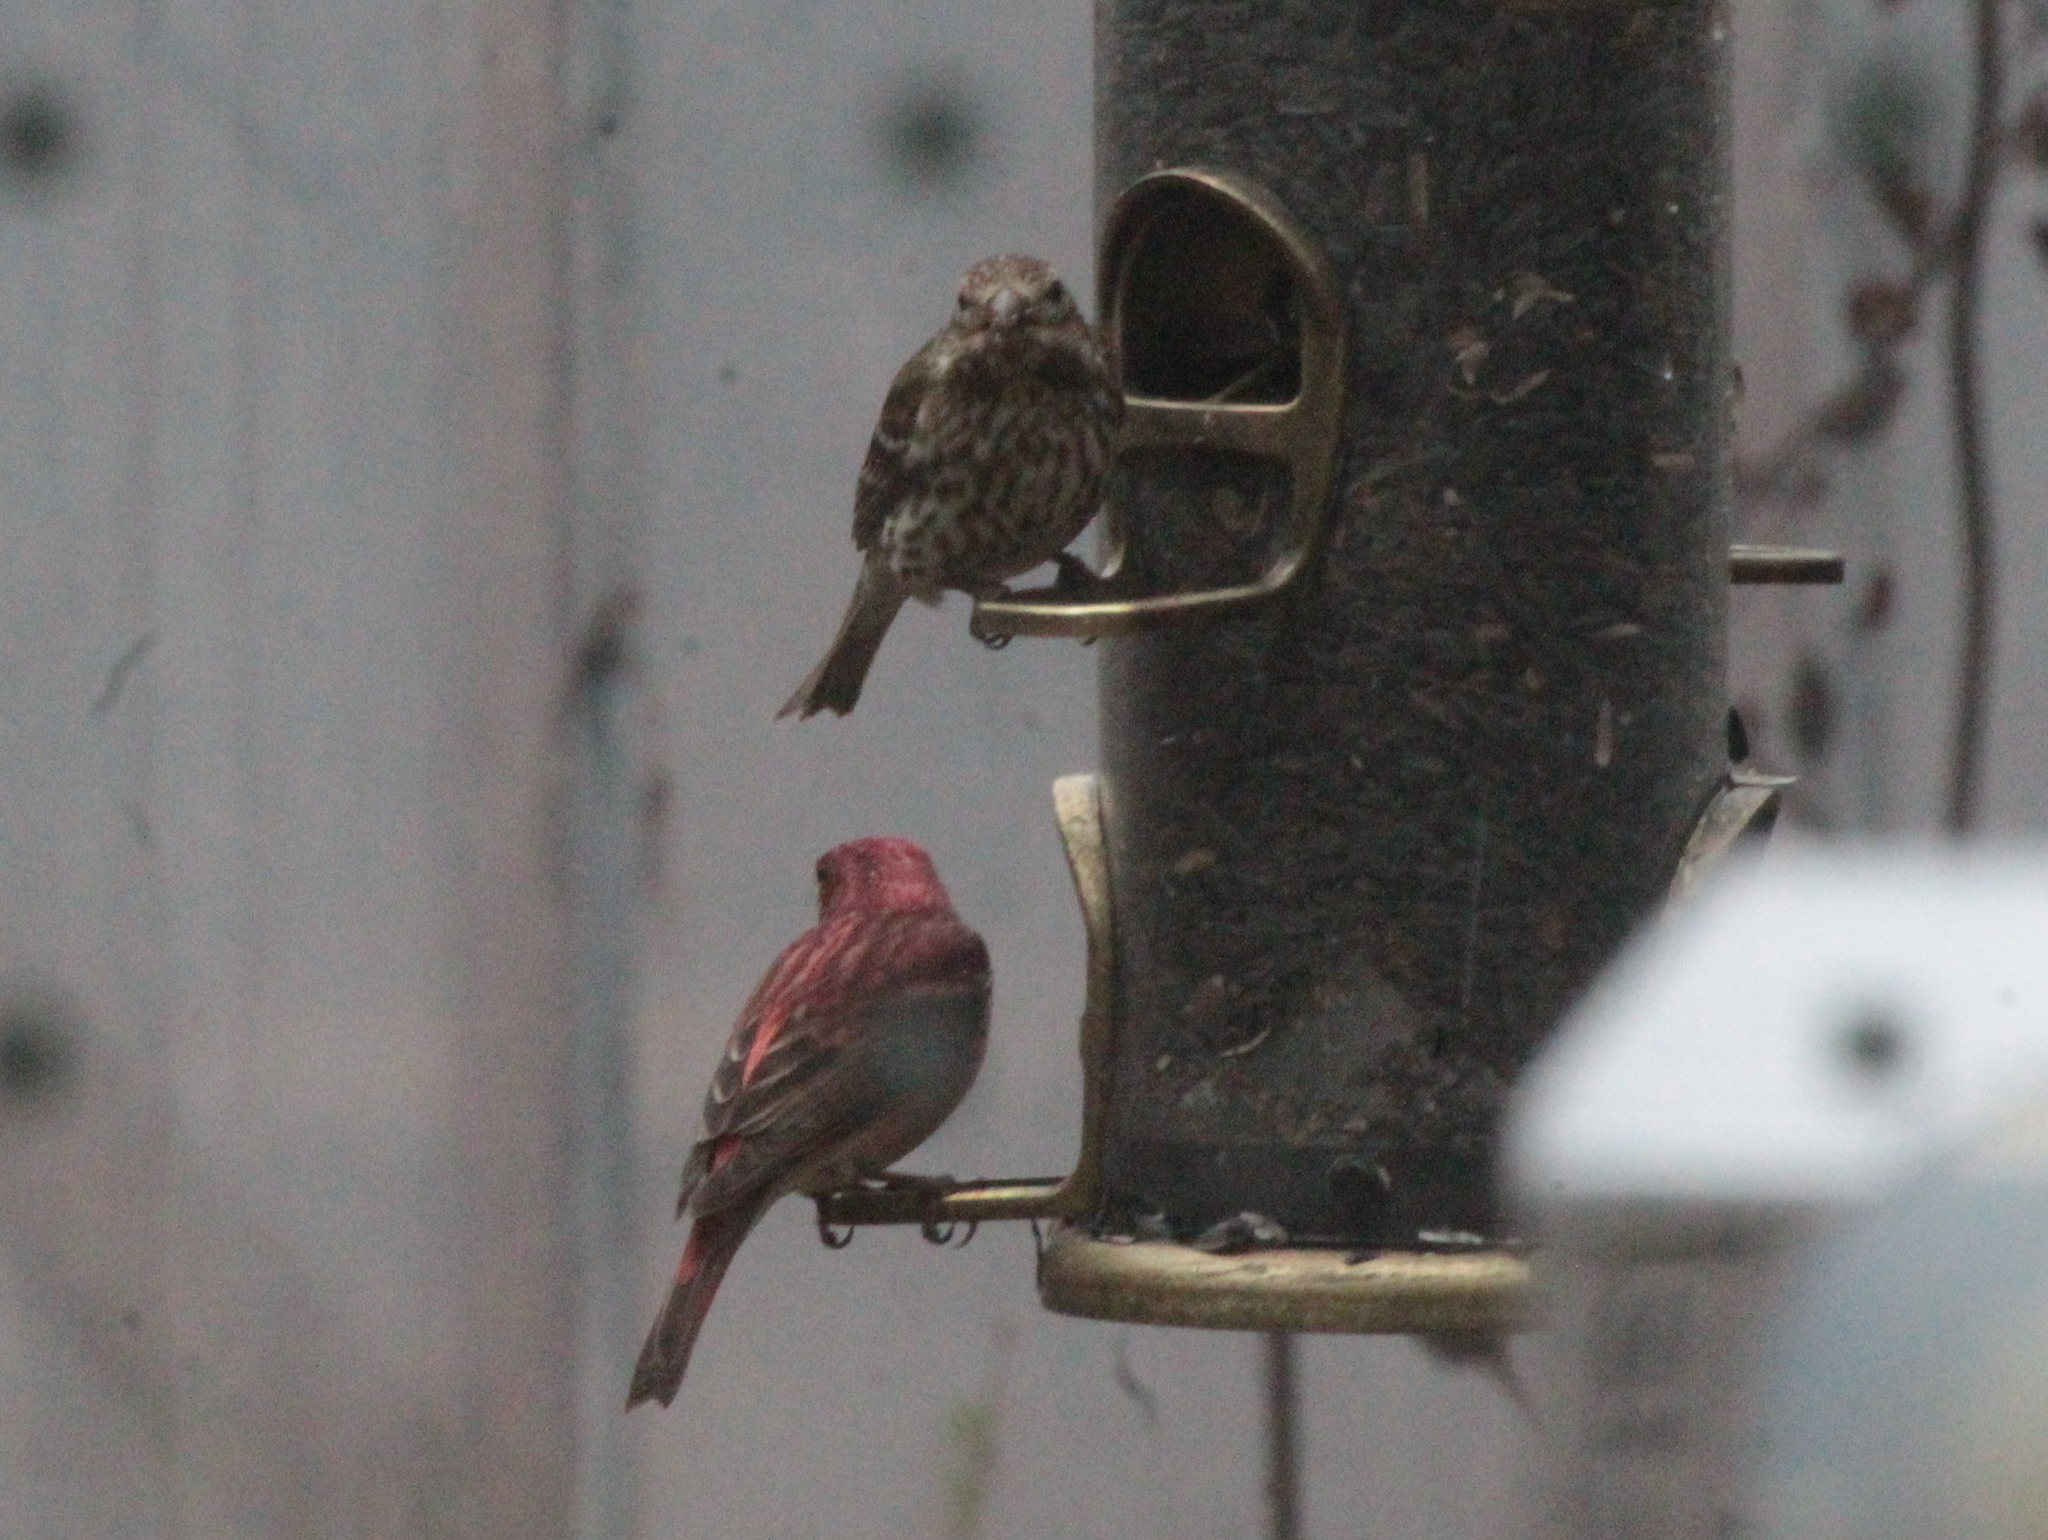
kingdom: Animalia
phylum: Chordata
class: Aves
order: Passeriformes
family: Fringillidae
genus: Haemorhous
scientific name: Haemorhous purpureus
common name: Purple finch
